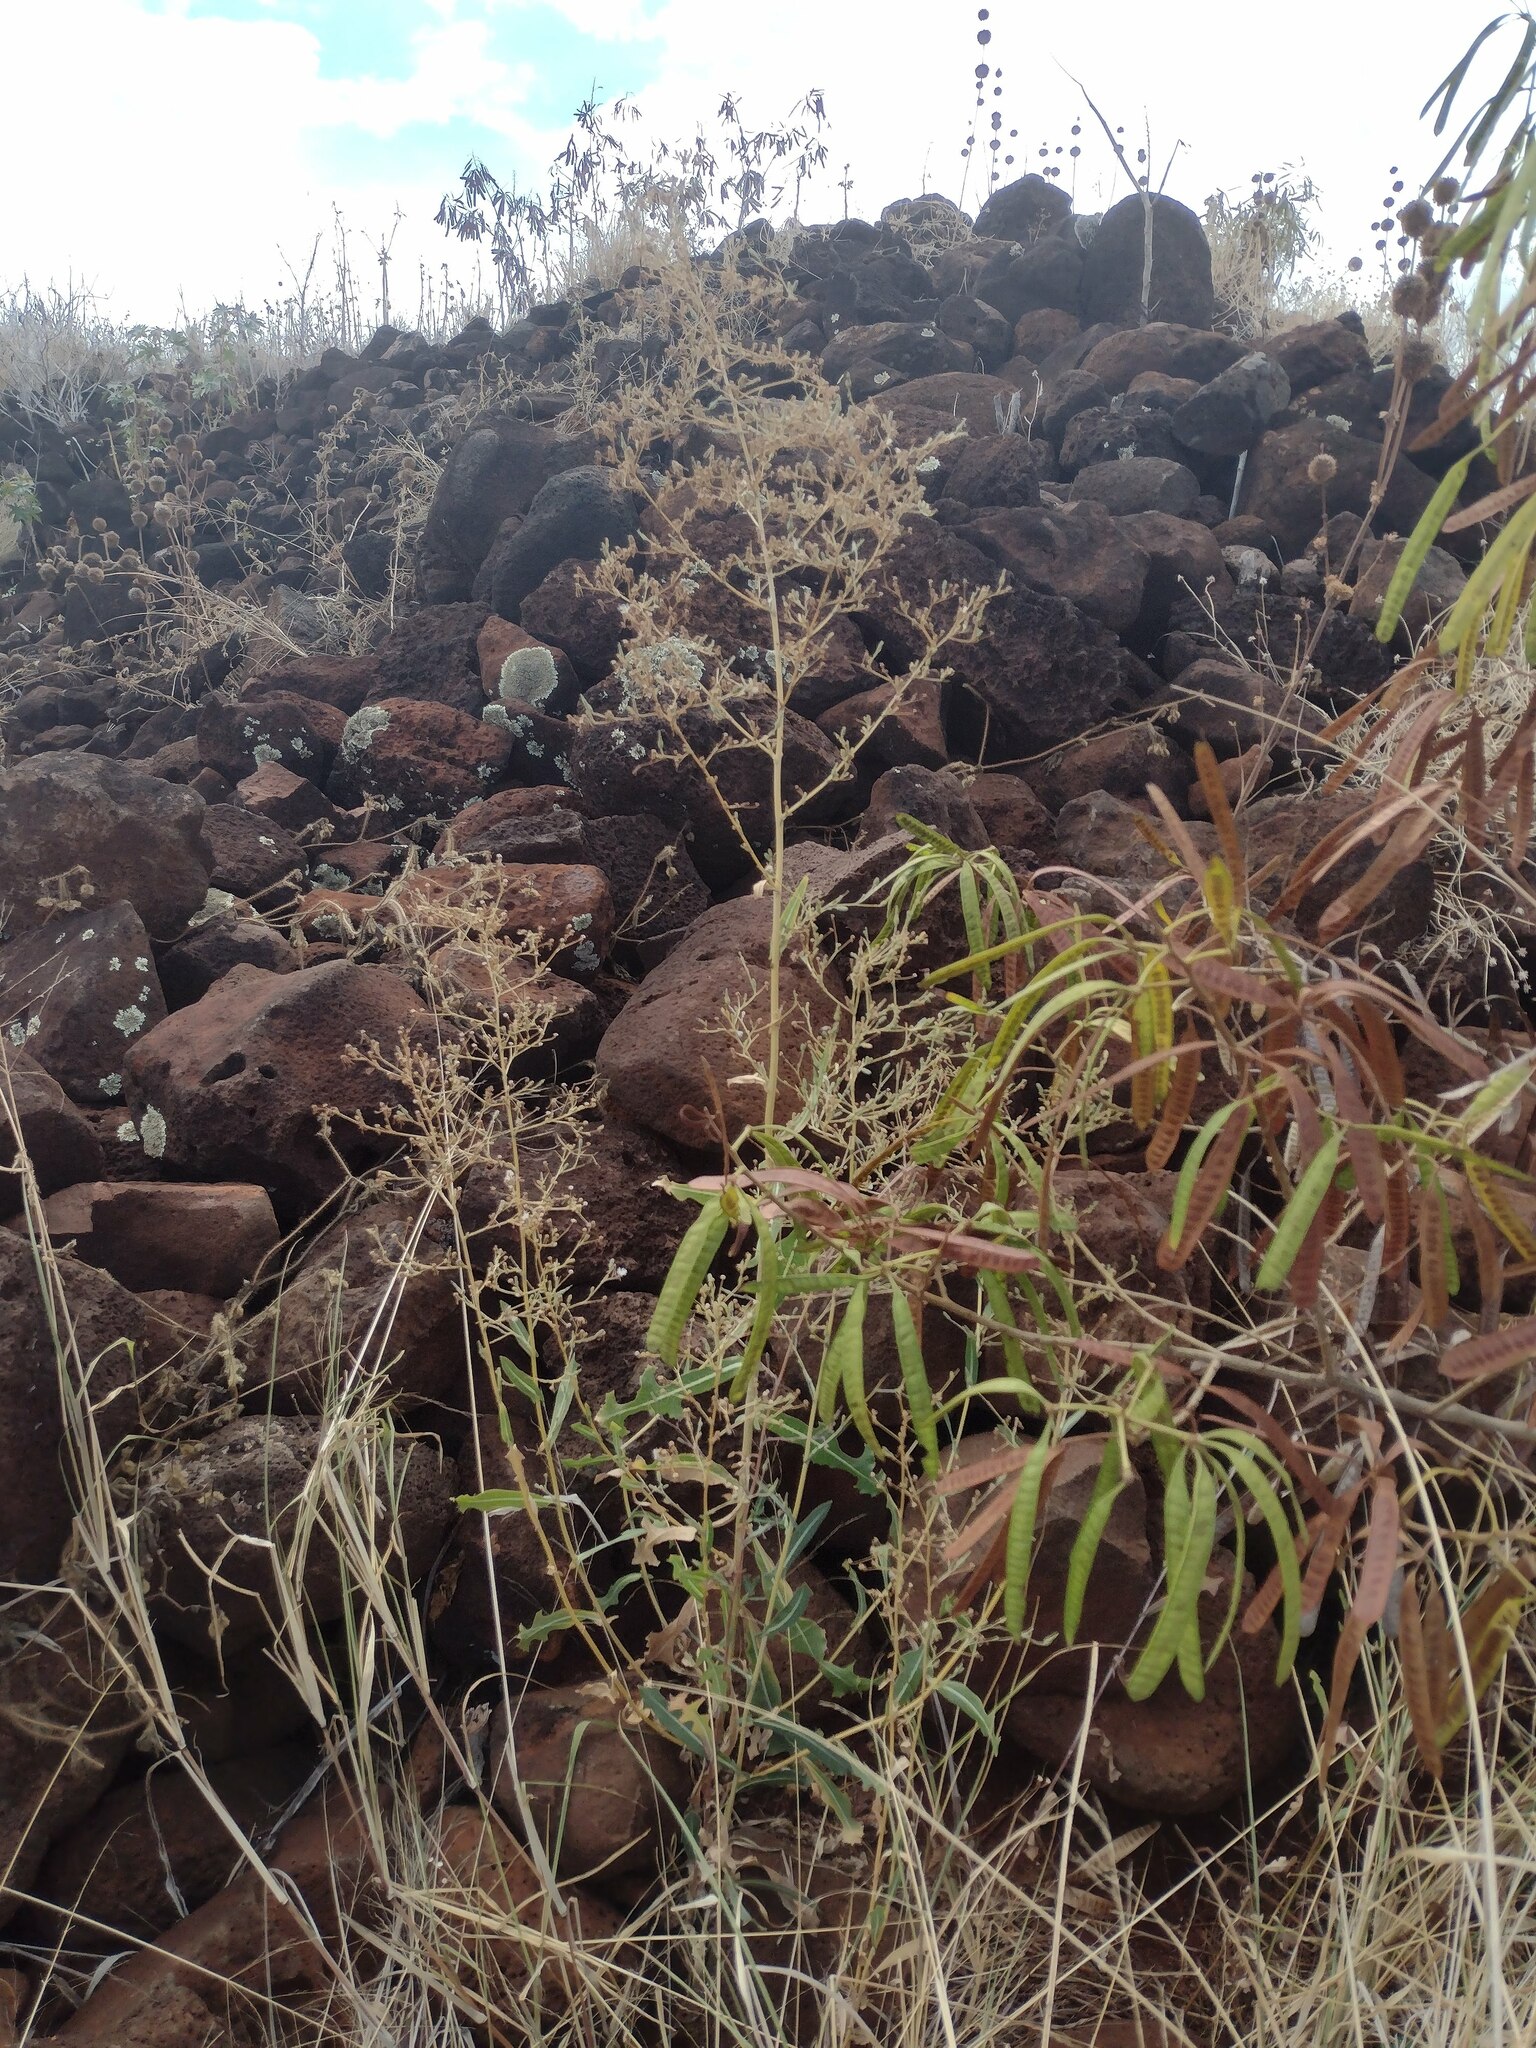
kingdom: Plantae
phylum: Tracheophyta
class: Magnoliopsida
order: Asterales
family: Asteraceae
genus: Lactuca
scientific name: Lactuca serriola
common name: Prickly lettuce
